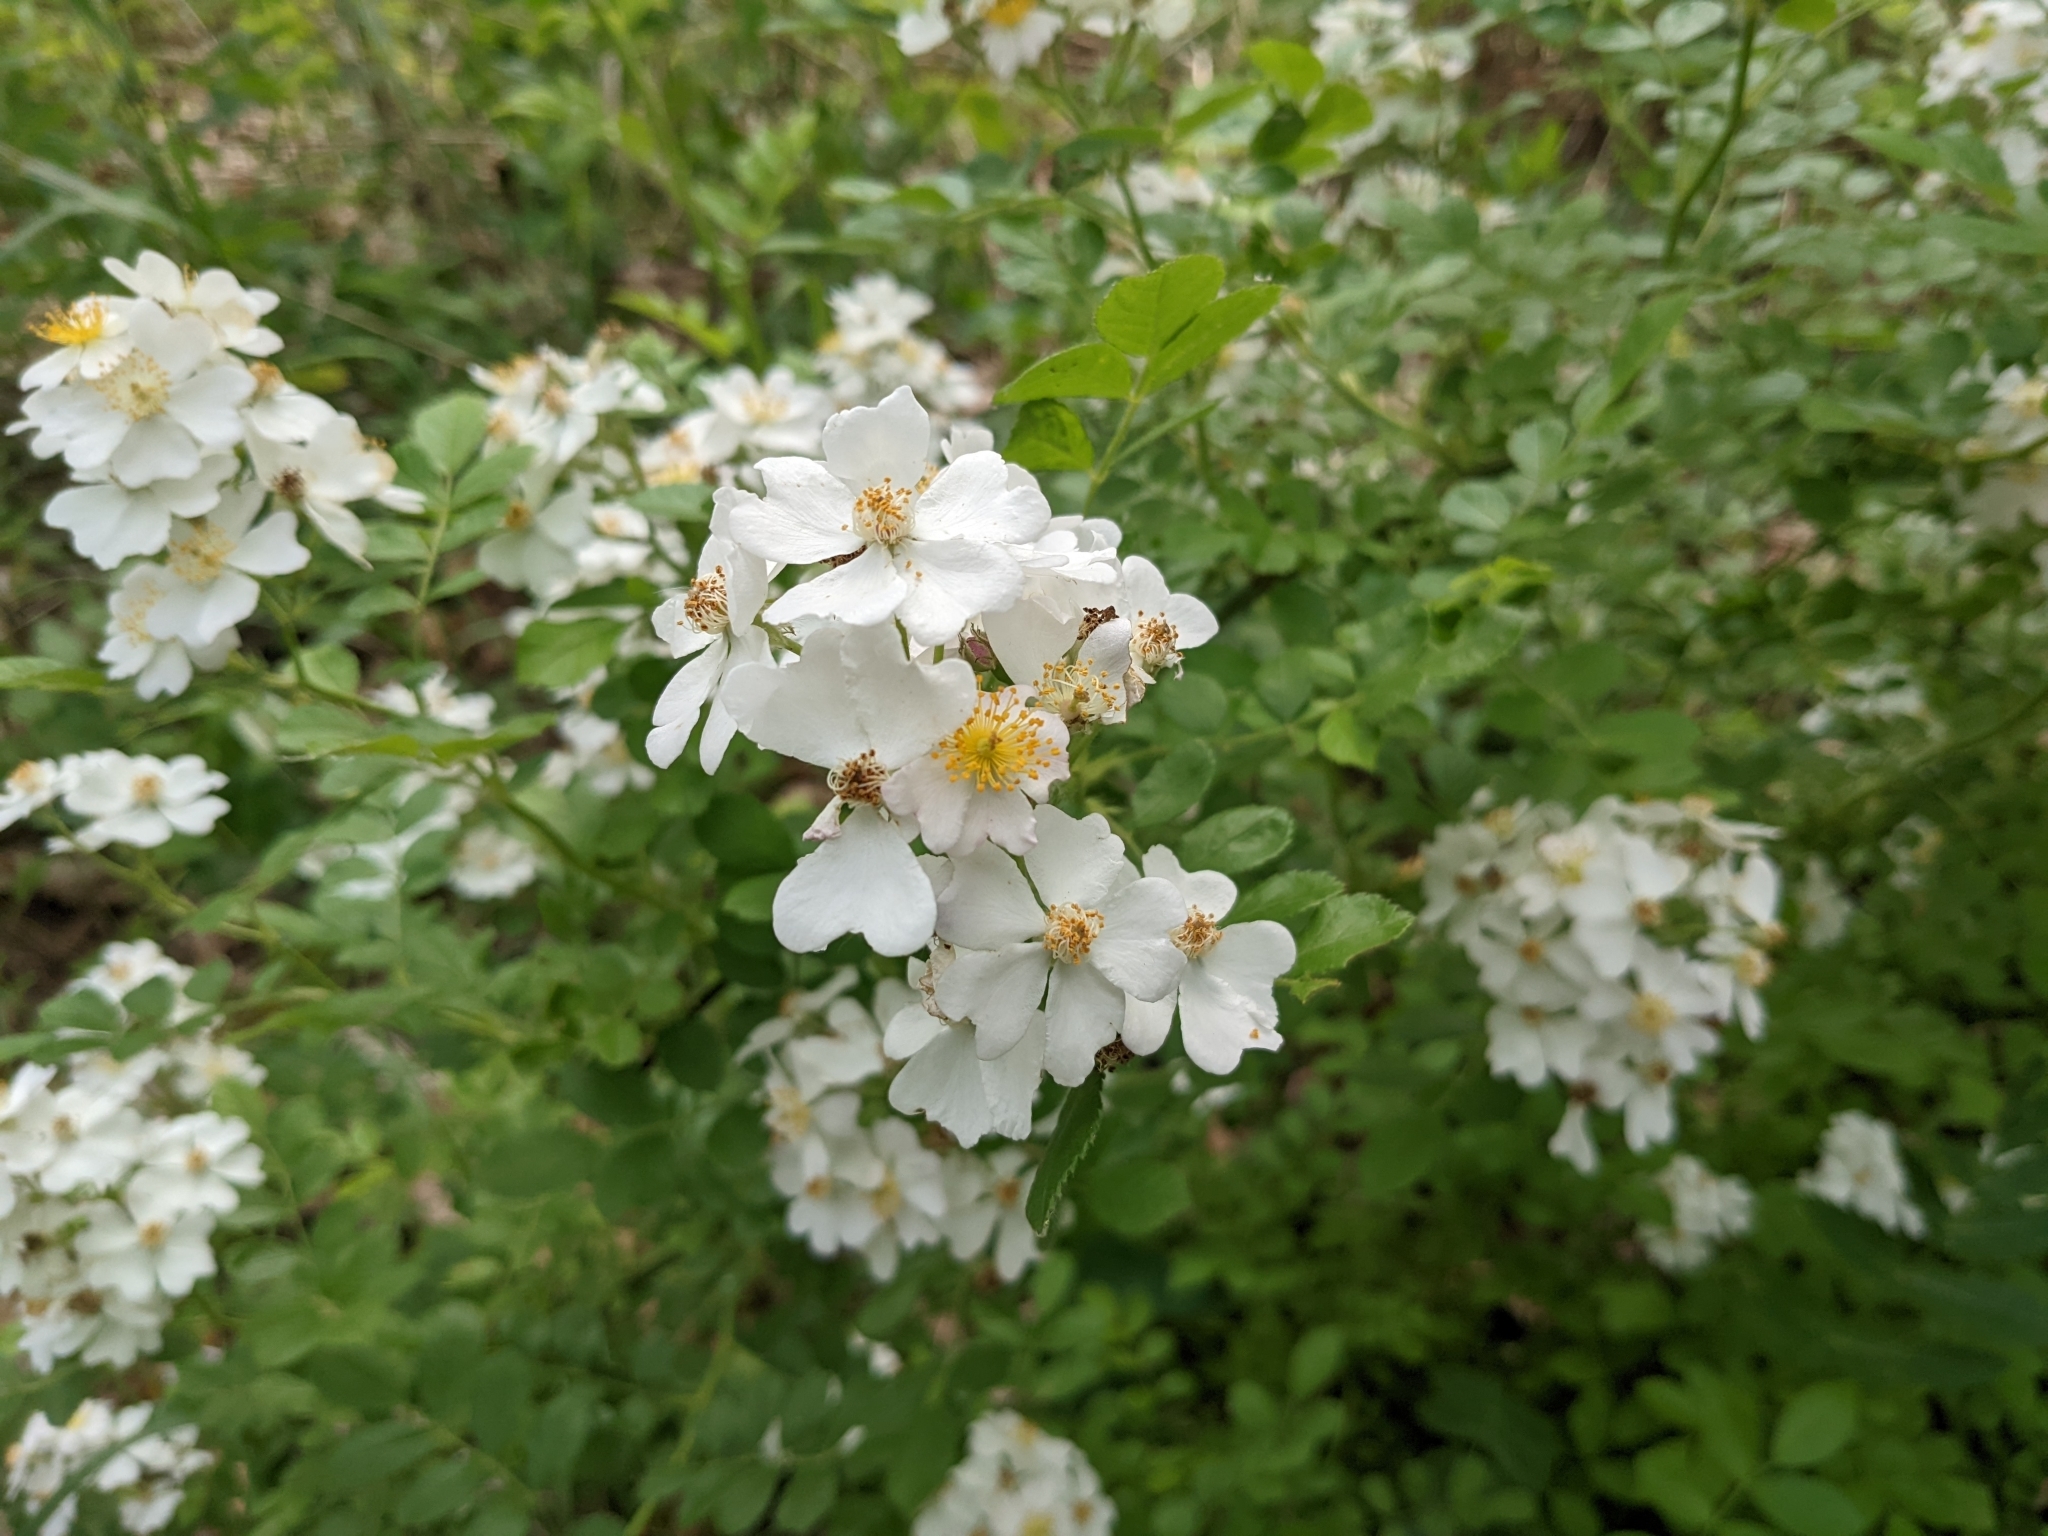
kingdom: Plantae
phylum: Tracheophyta
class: Magnoliopsida
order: Rosales
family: Rosaceae
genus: Rosa
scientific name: Rosa multiflora
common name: Multiflora rose
